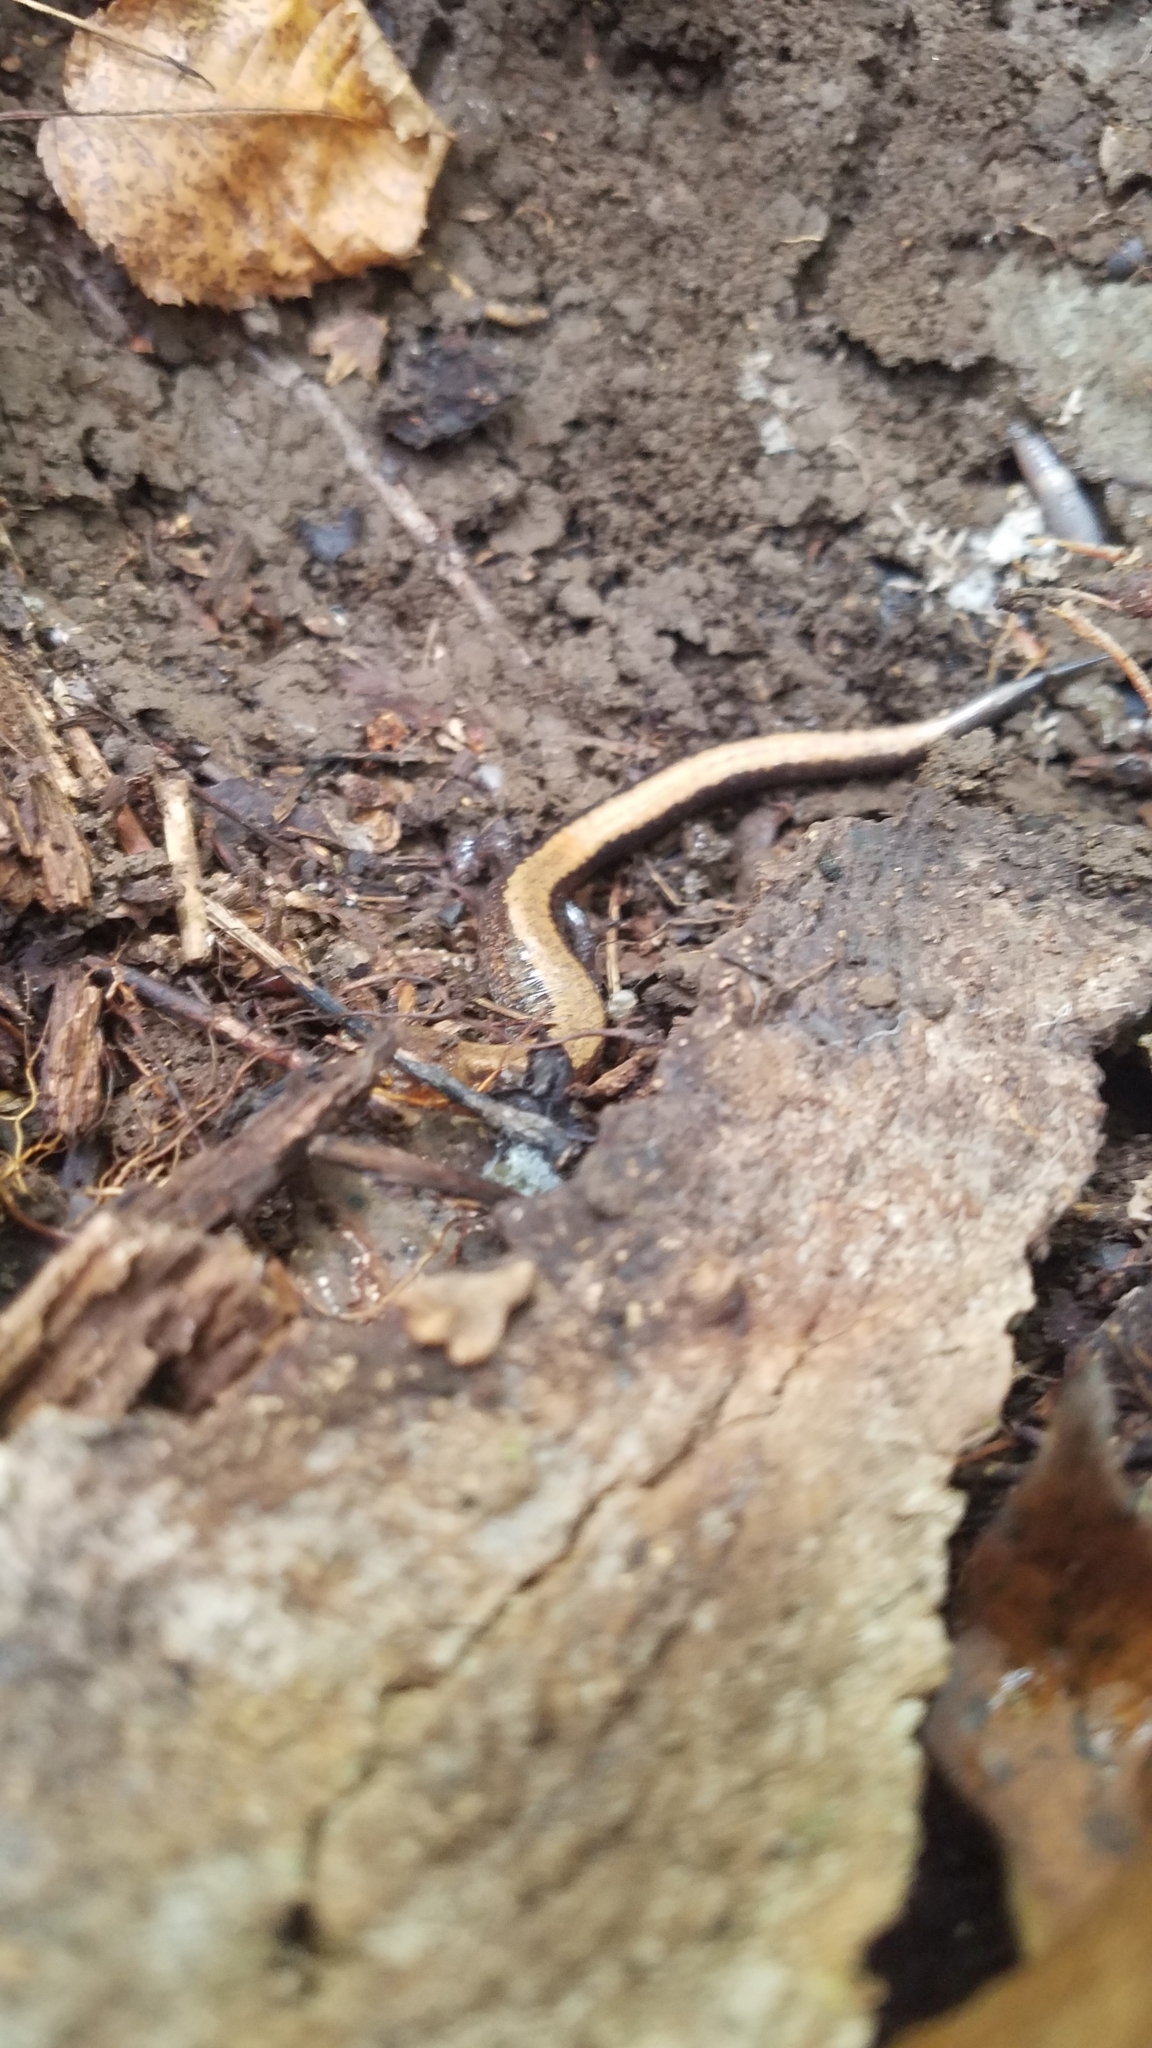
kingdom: Animalia
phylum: Chordata
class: Amphibia
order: Caudata
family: Plethodontidae
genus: Plethodon
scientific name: Plethodon cinereus
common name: Redback salamander
